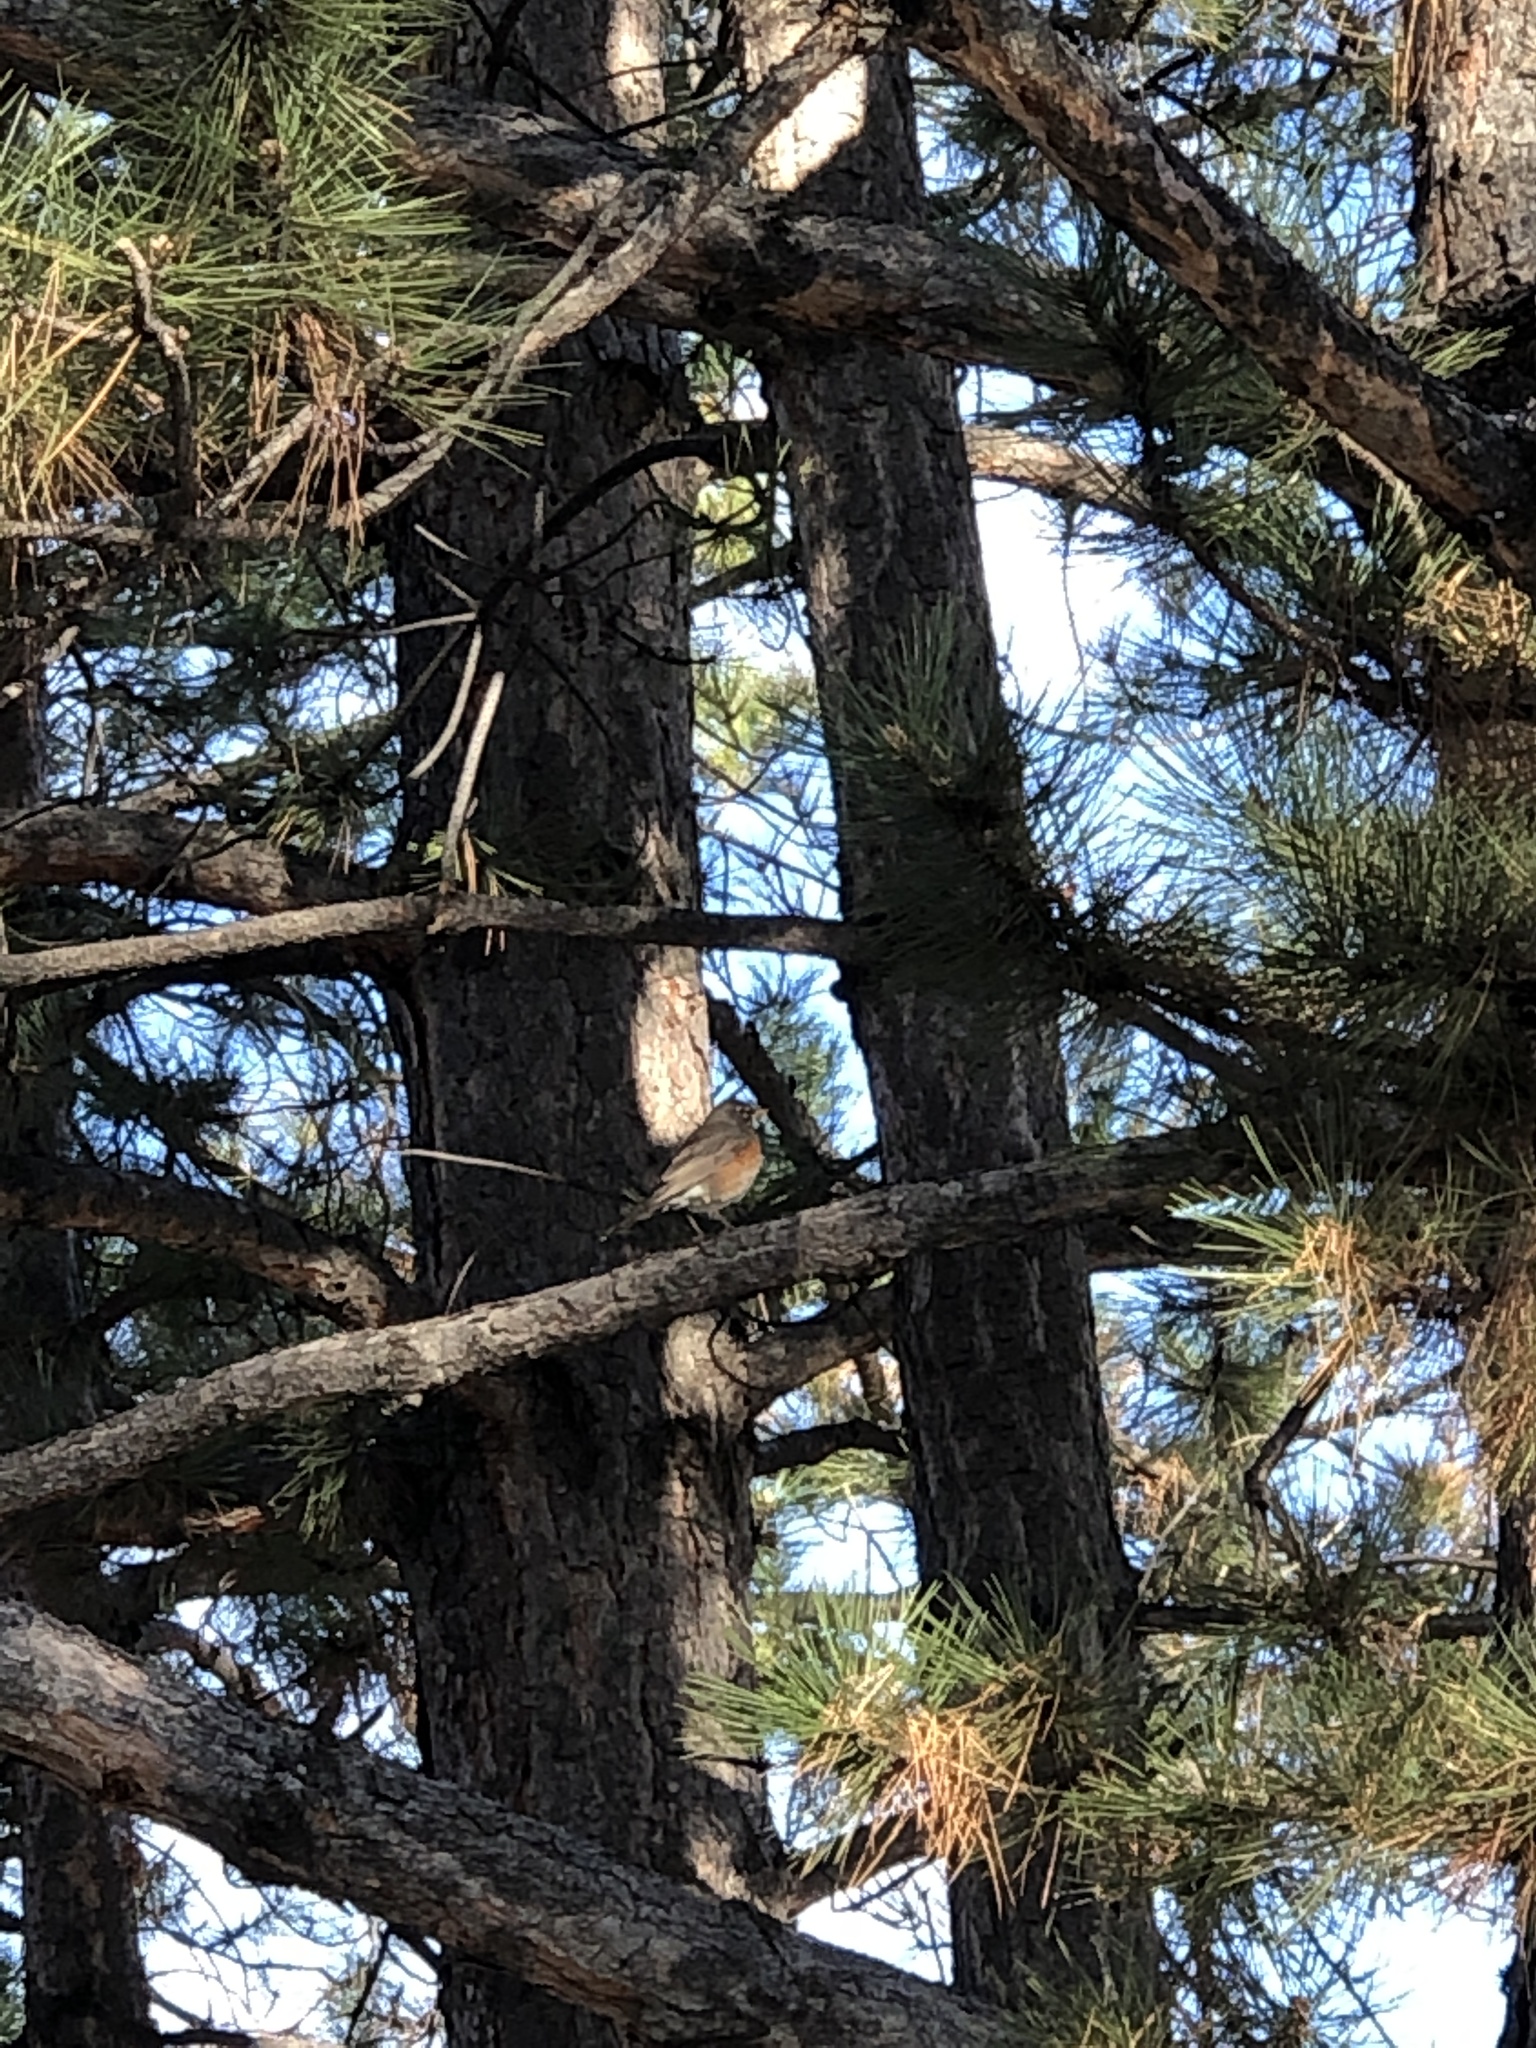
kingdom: Animalia
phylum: Chordata
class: Aves
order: Passeriformes
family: Turdidae
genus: Turdus
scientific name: Turdus migratorius
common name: American robin
